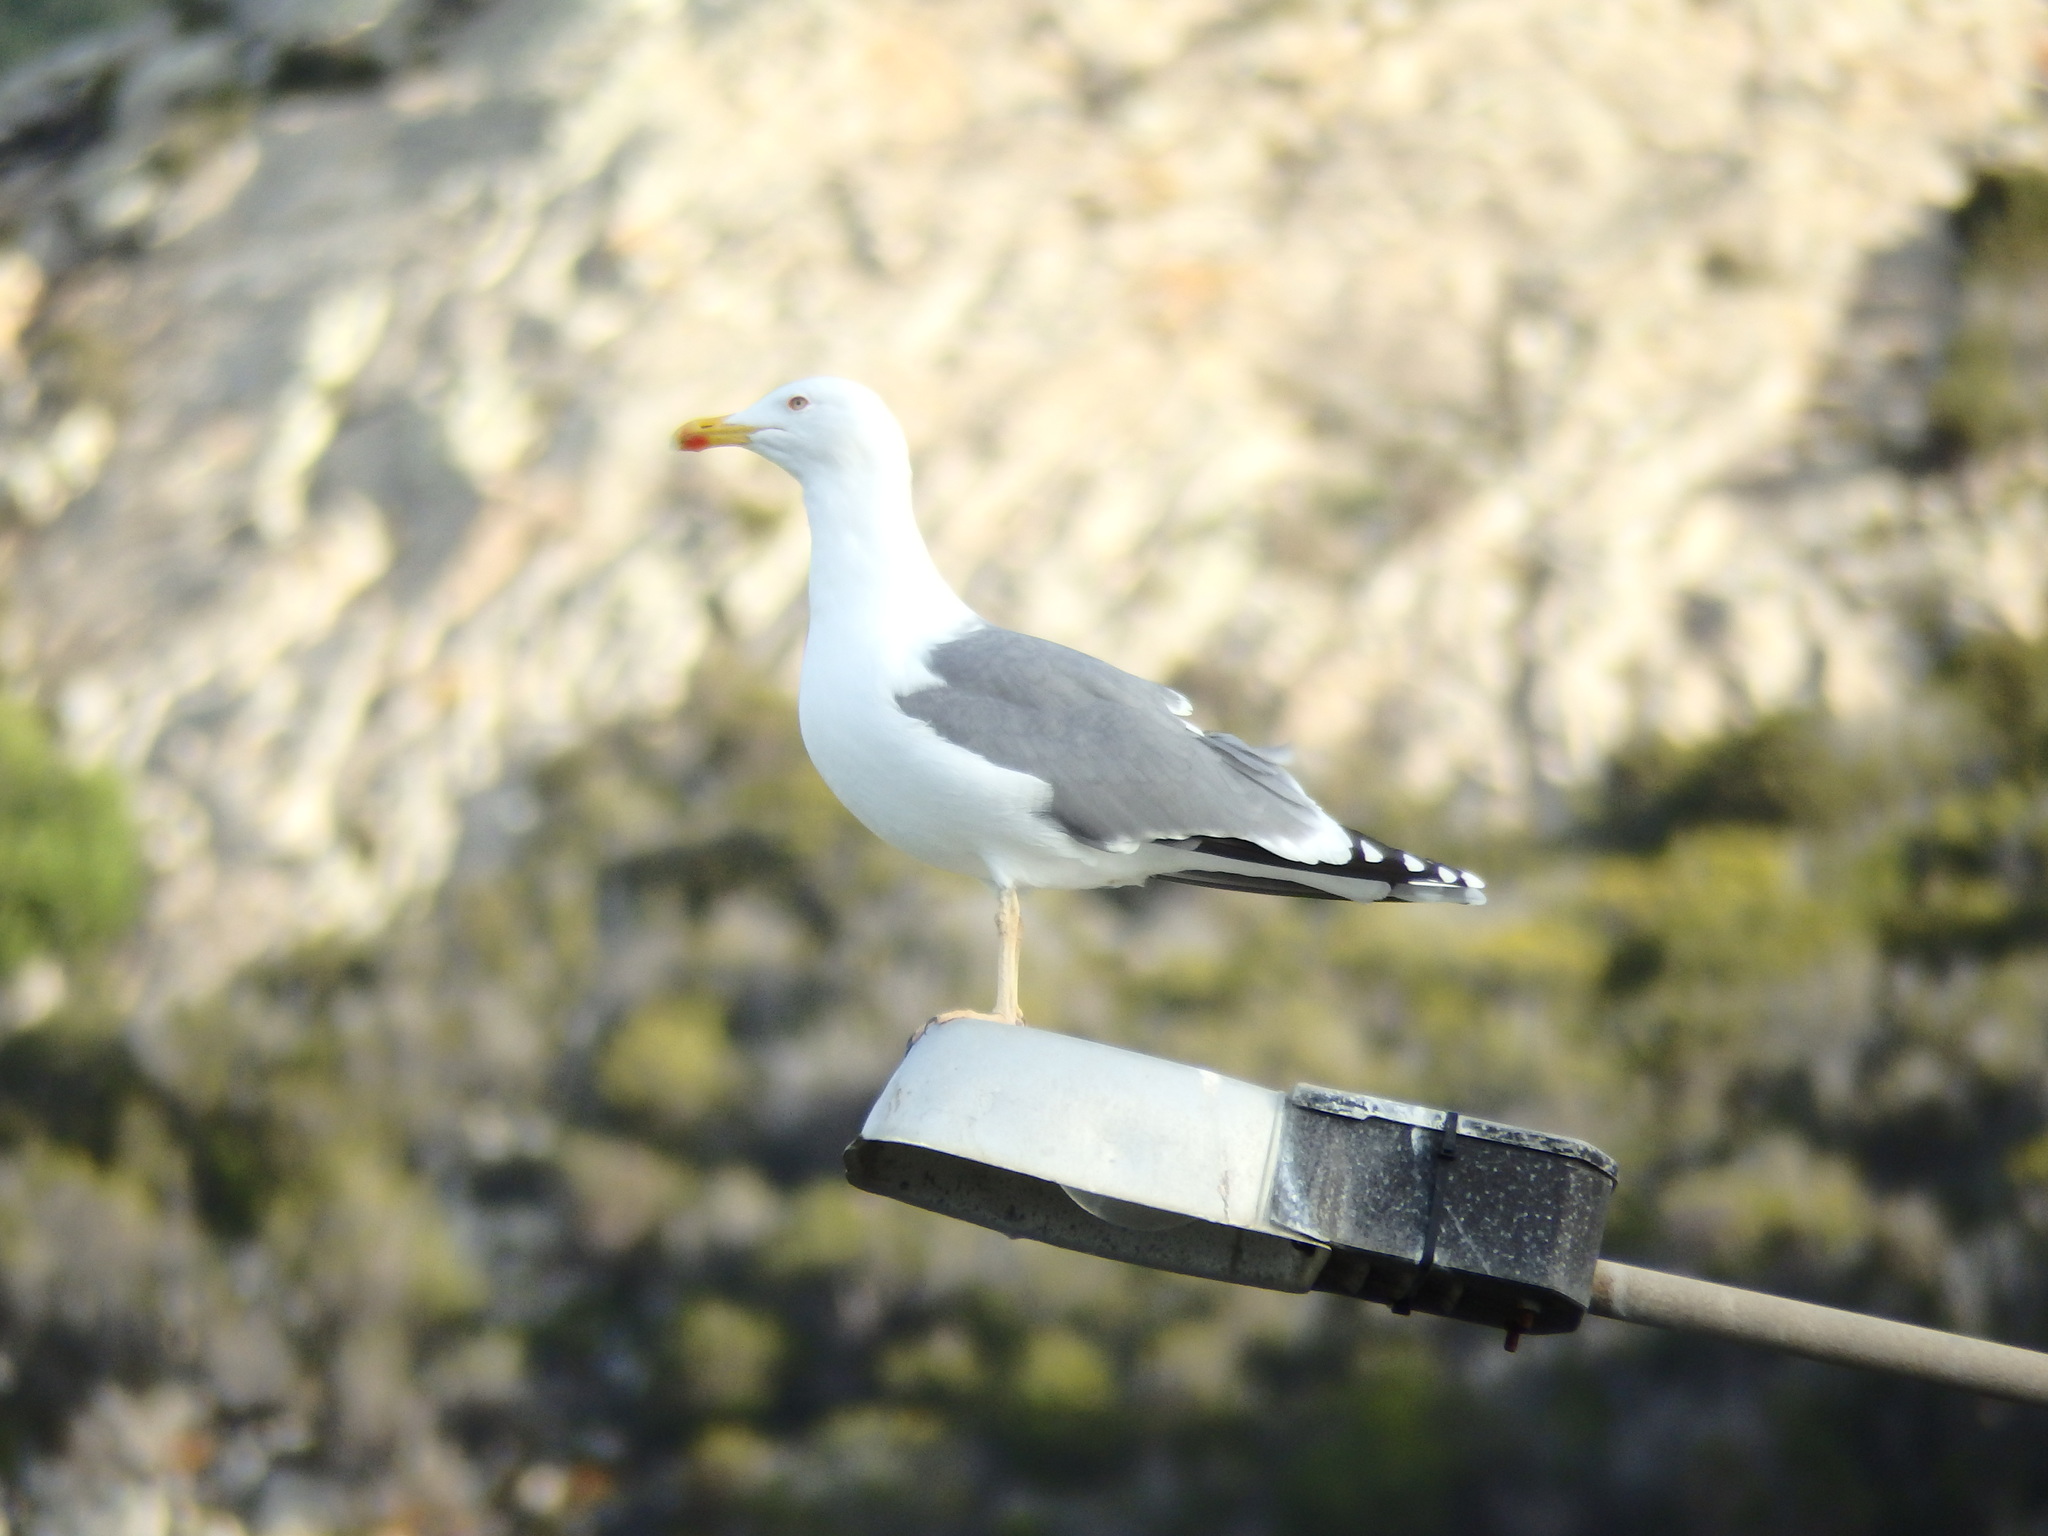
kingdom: Animalia
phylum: Chordata
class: Aves
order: Charadriiformes
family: Laridae
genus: Larus
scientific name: Larus michahellis
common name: Yellow-legged gull
